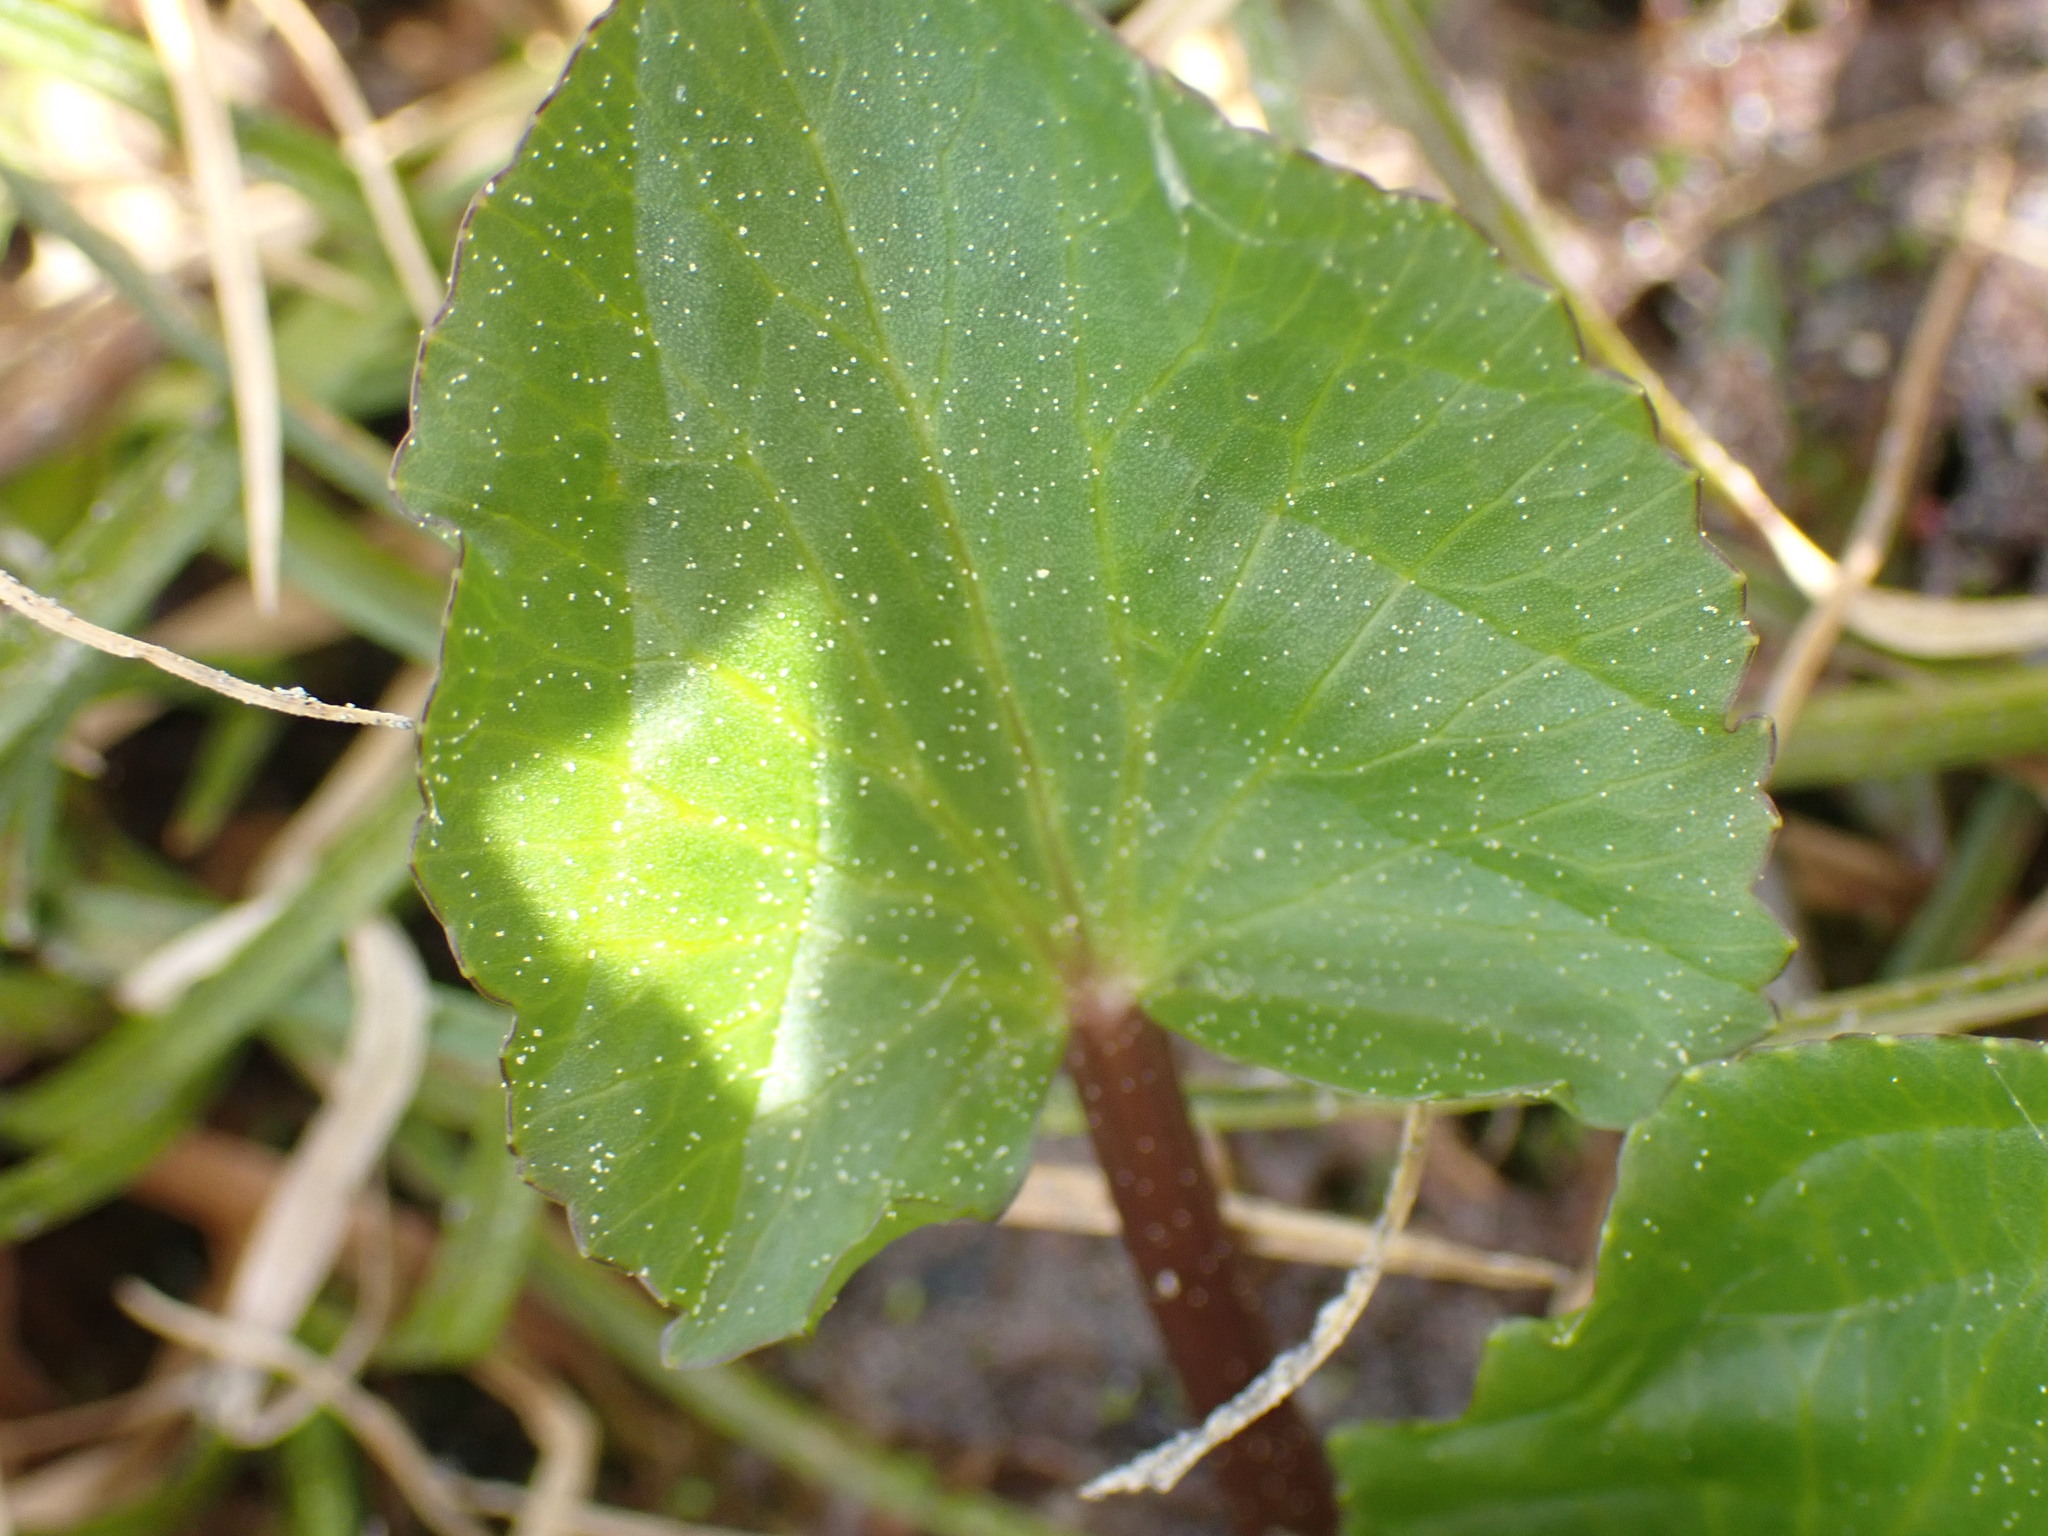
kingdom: Plantae
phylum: Tracheophyta
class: Magnoliopsida
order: Ranunculales
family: Ranunculaceae
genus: Caltha
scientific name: Caltha leptosepala
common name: Elkslip
